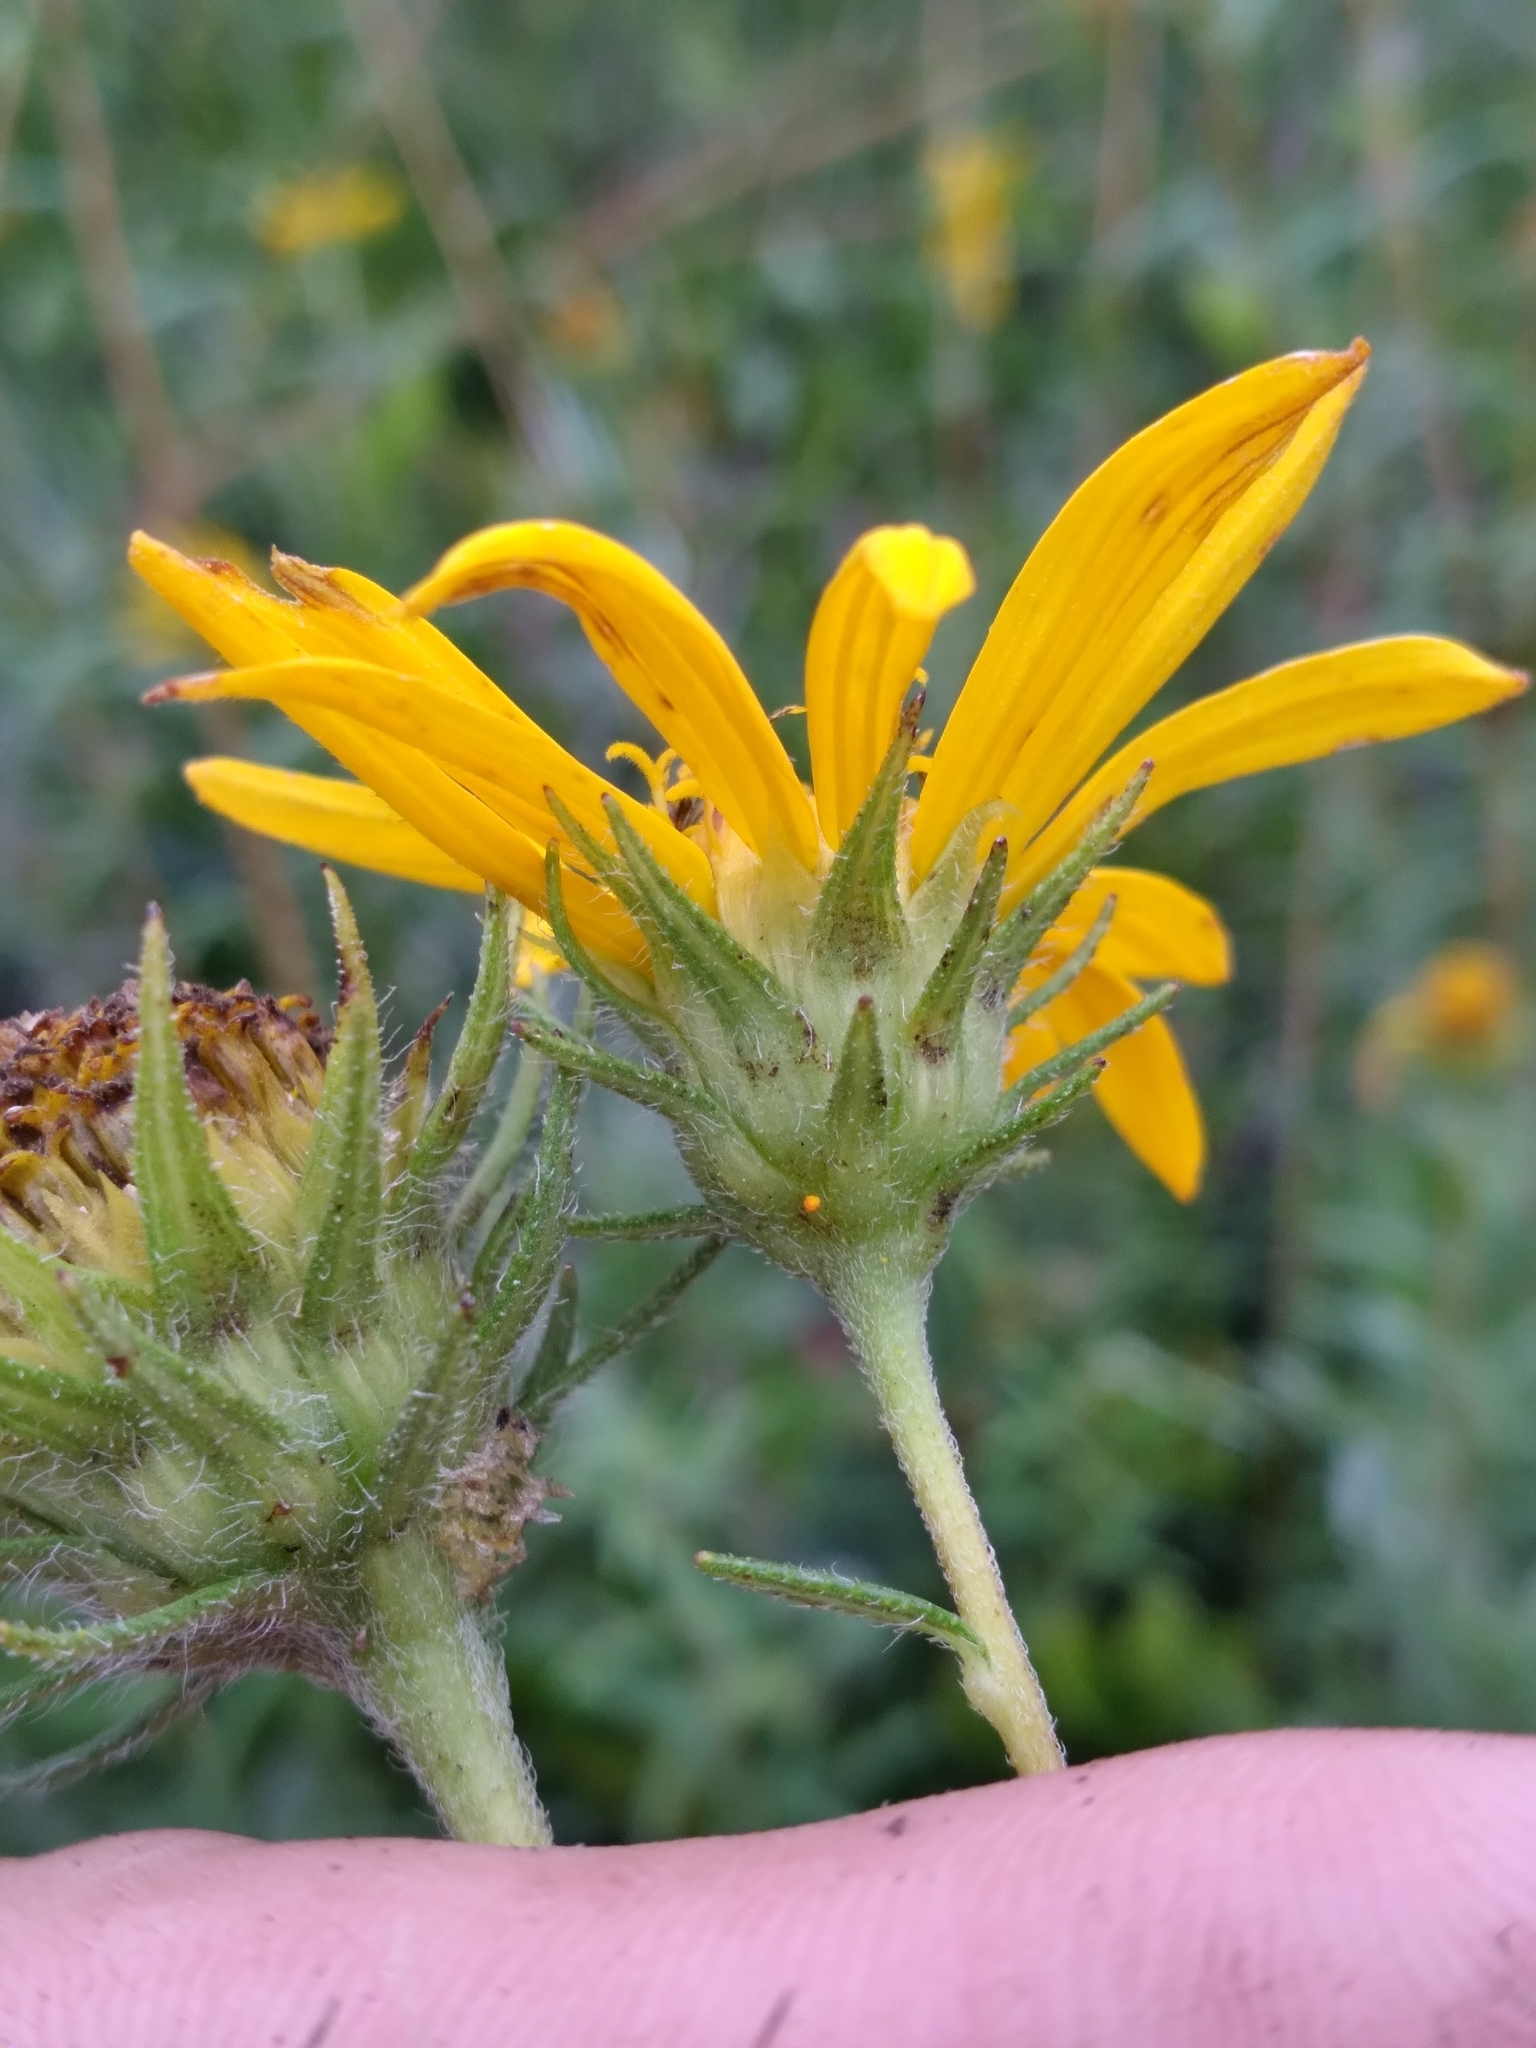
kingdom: Plantae
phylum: Tracheophyta
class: Magnoliopsida
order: Asterales
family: Asteraceae
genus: Phoebanthus
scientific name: Phoebanthus grandiflora
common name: Florida false sunflower
